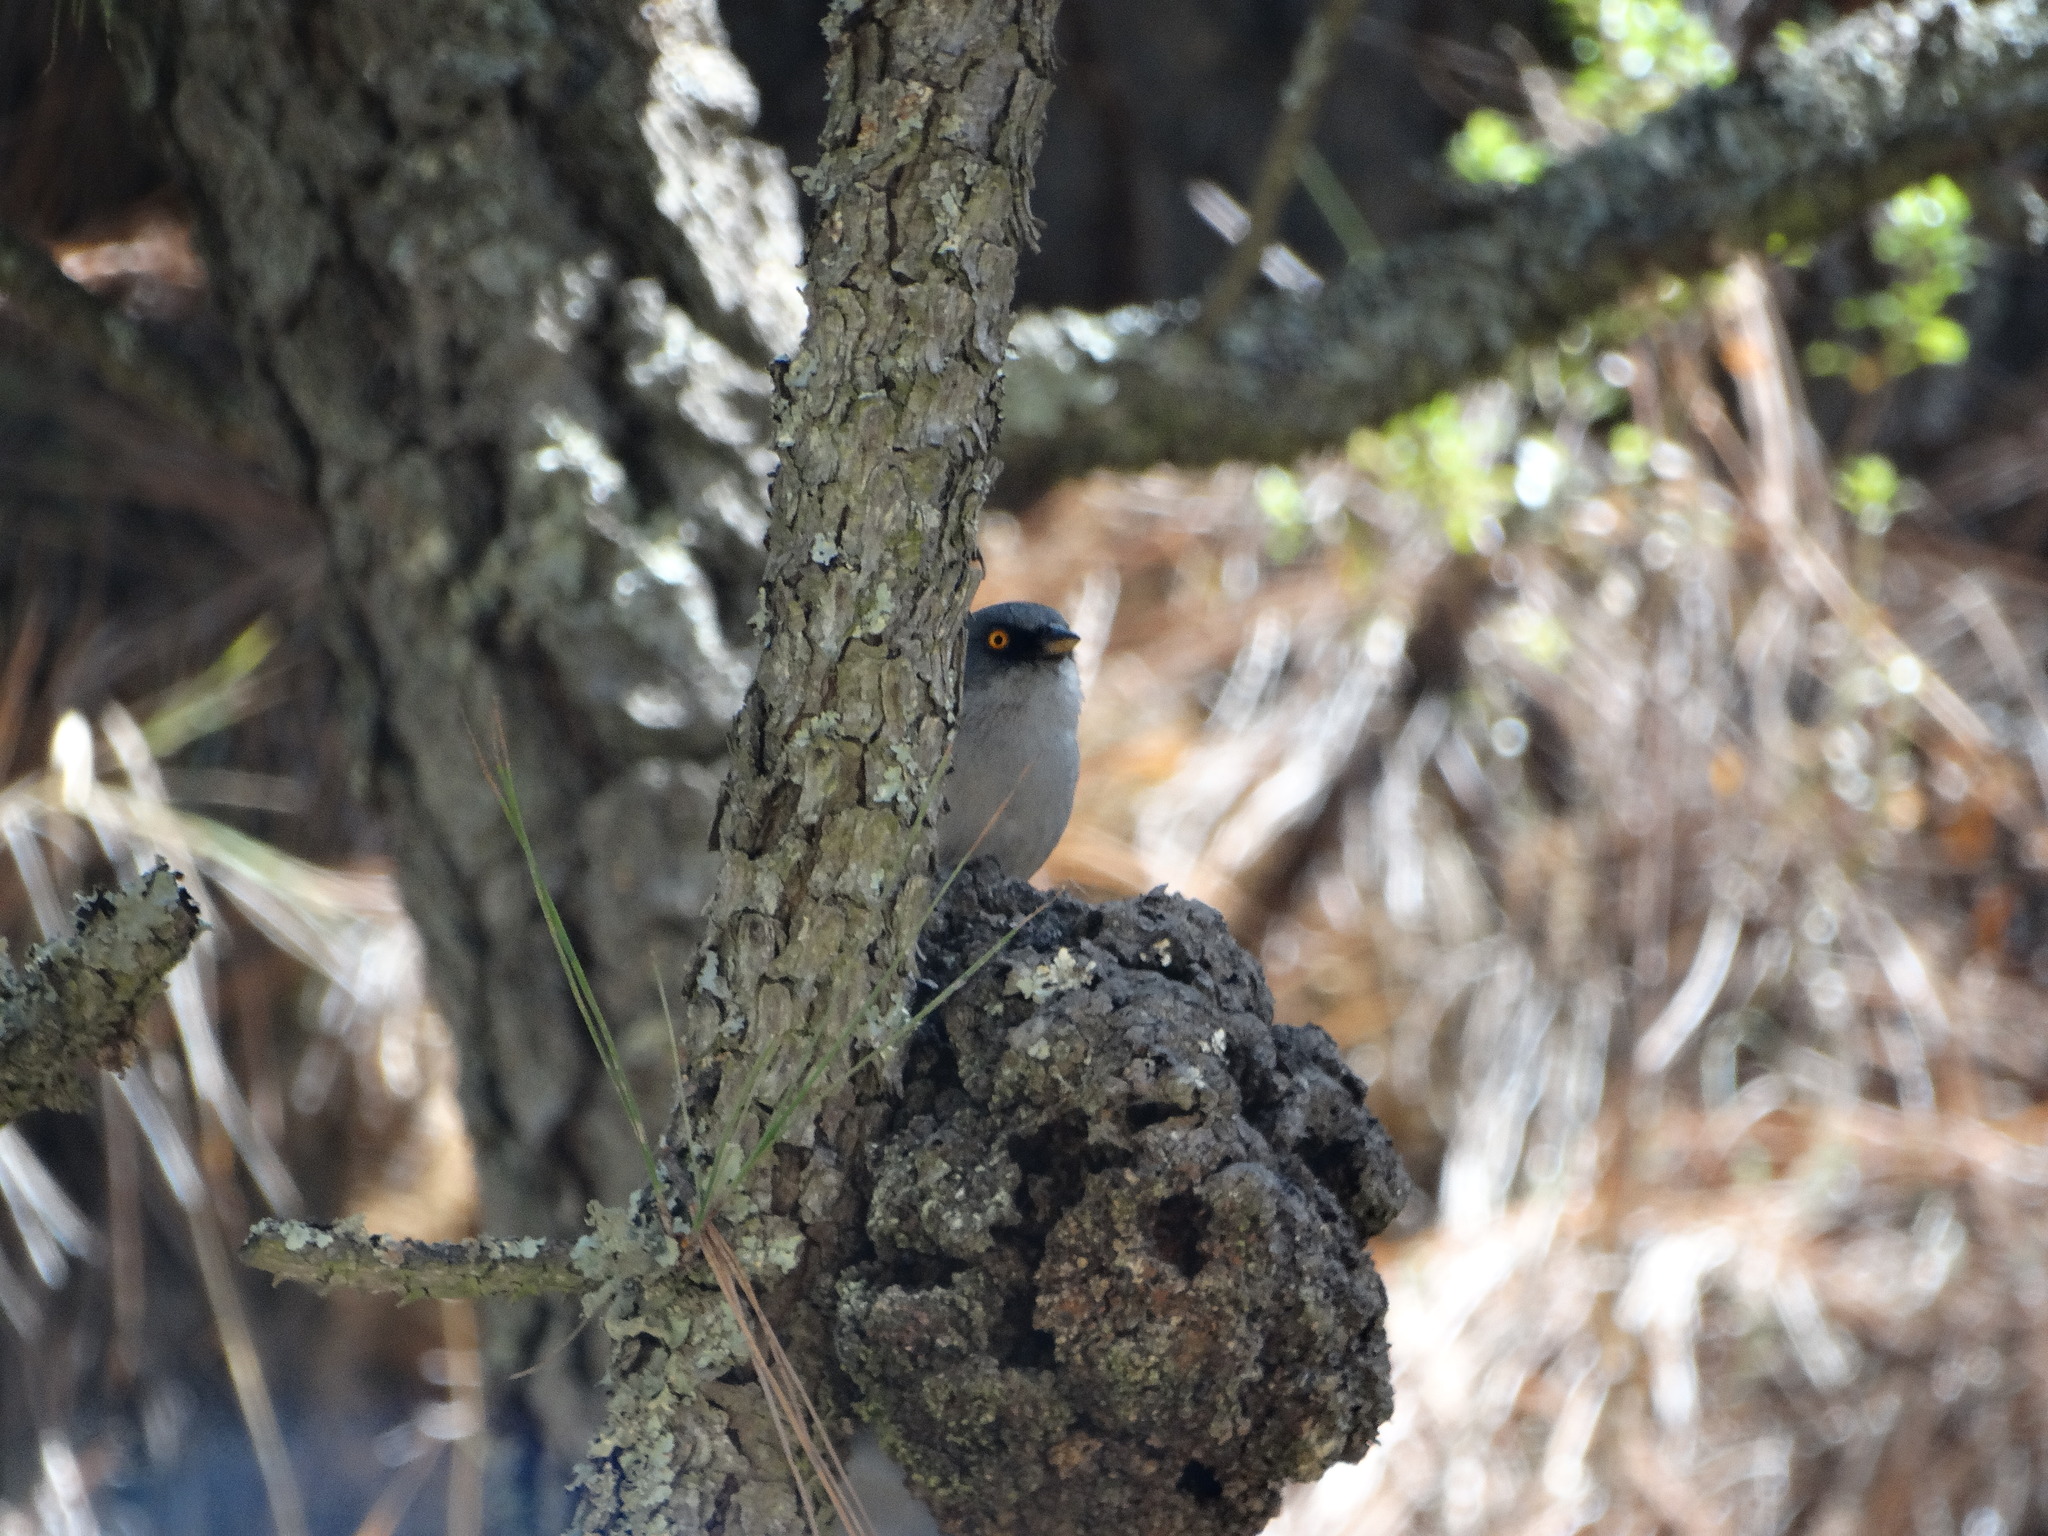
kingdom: Animalia
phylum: Chordata
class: Aves
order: Passeriformes
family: Passerellidae
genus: Junco
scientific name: Junco phaeonotus
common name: Yellow-eyed junco
